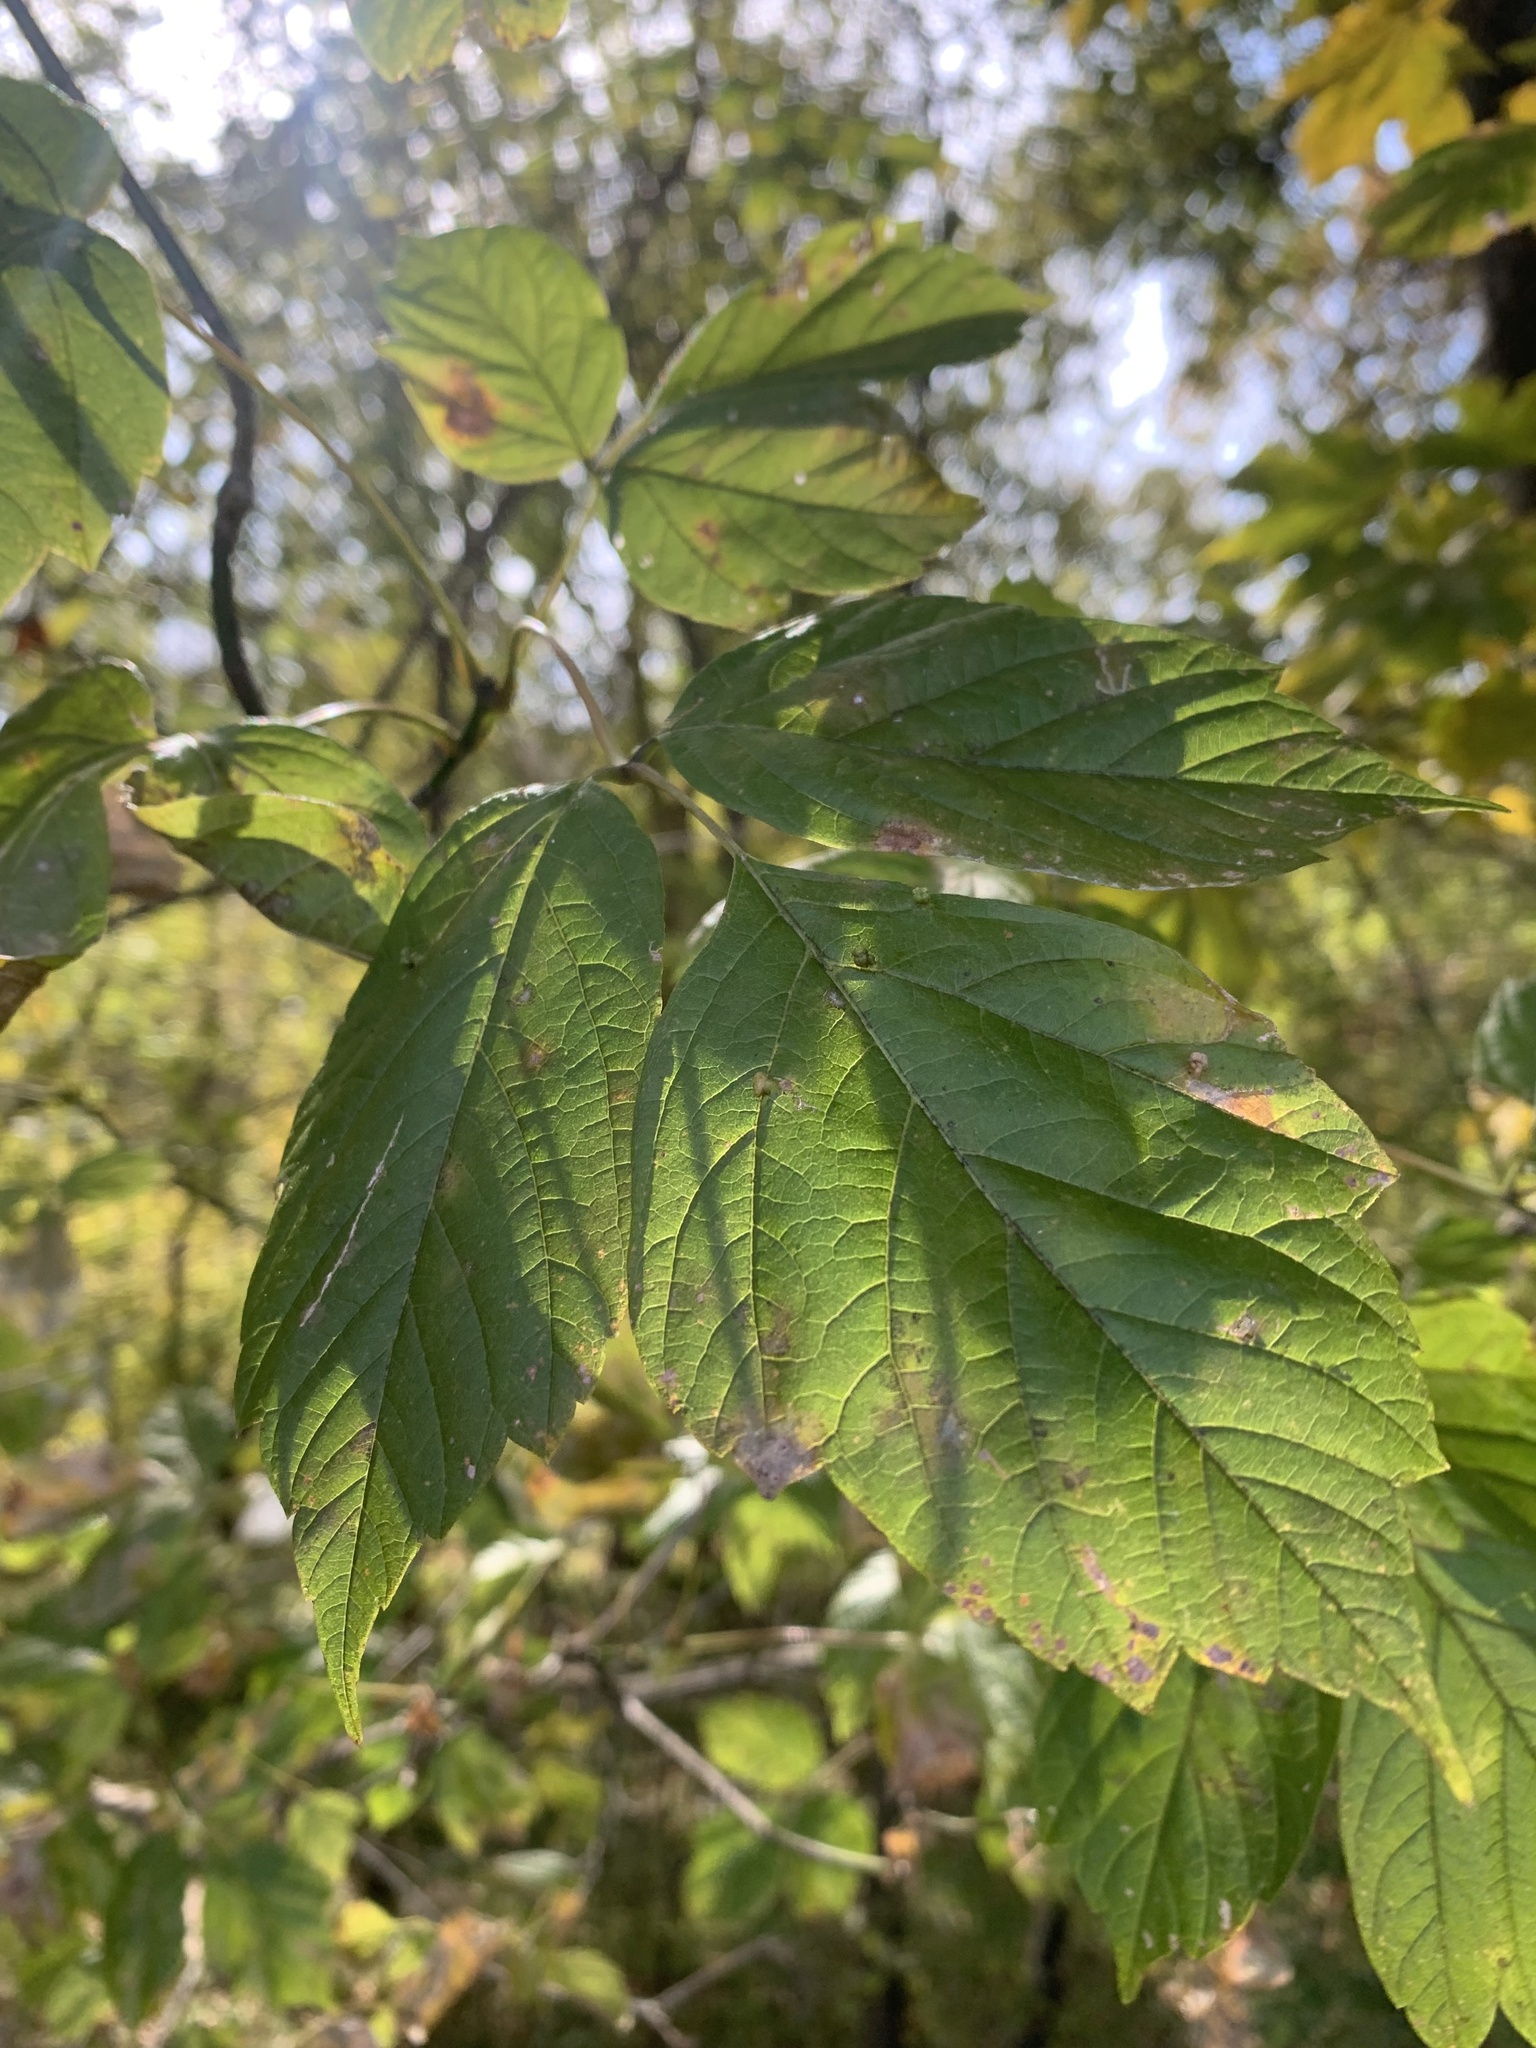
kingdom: Plantae
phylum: Tracheophyta
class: Magnoliopsida
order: Sapindales
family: Sapindaceae
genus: Acer
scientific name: Acer negundo
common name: Ashleaf maple
